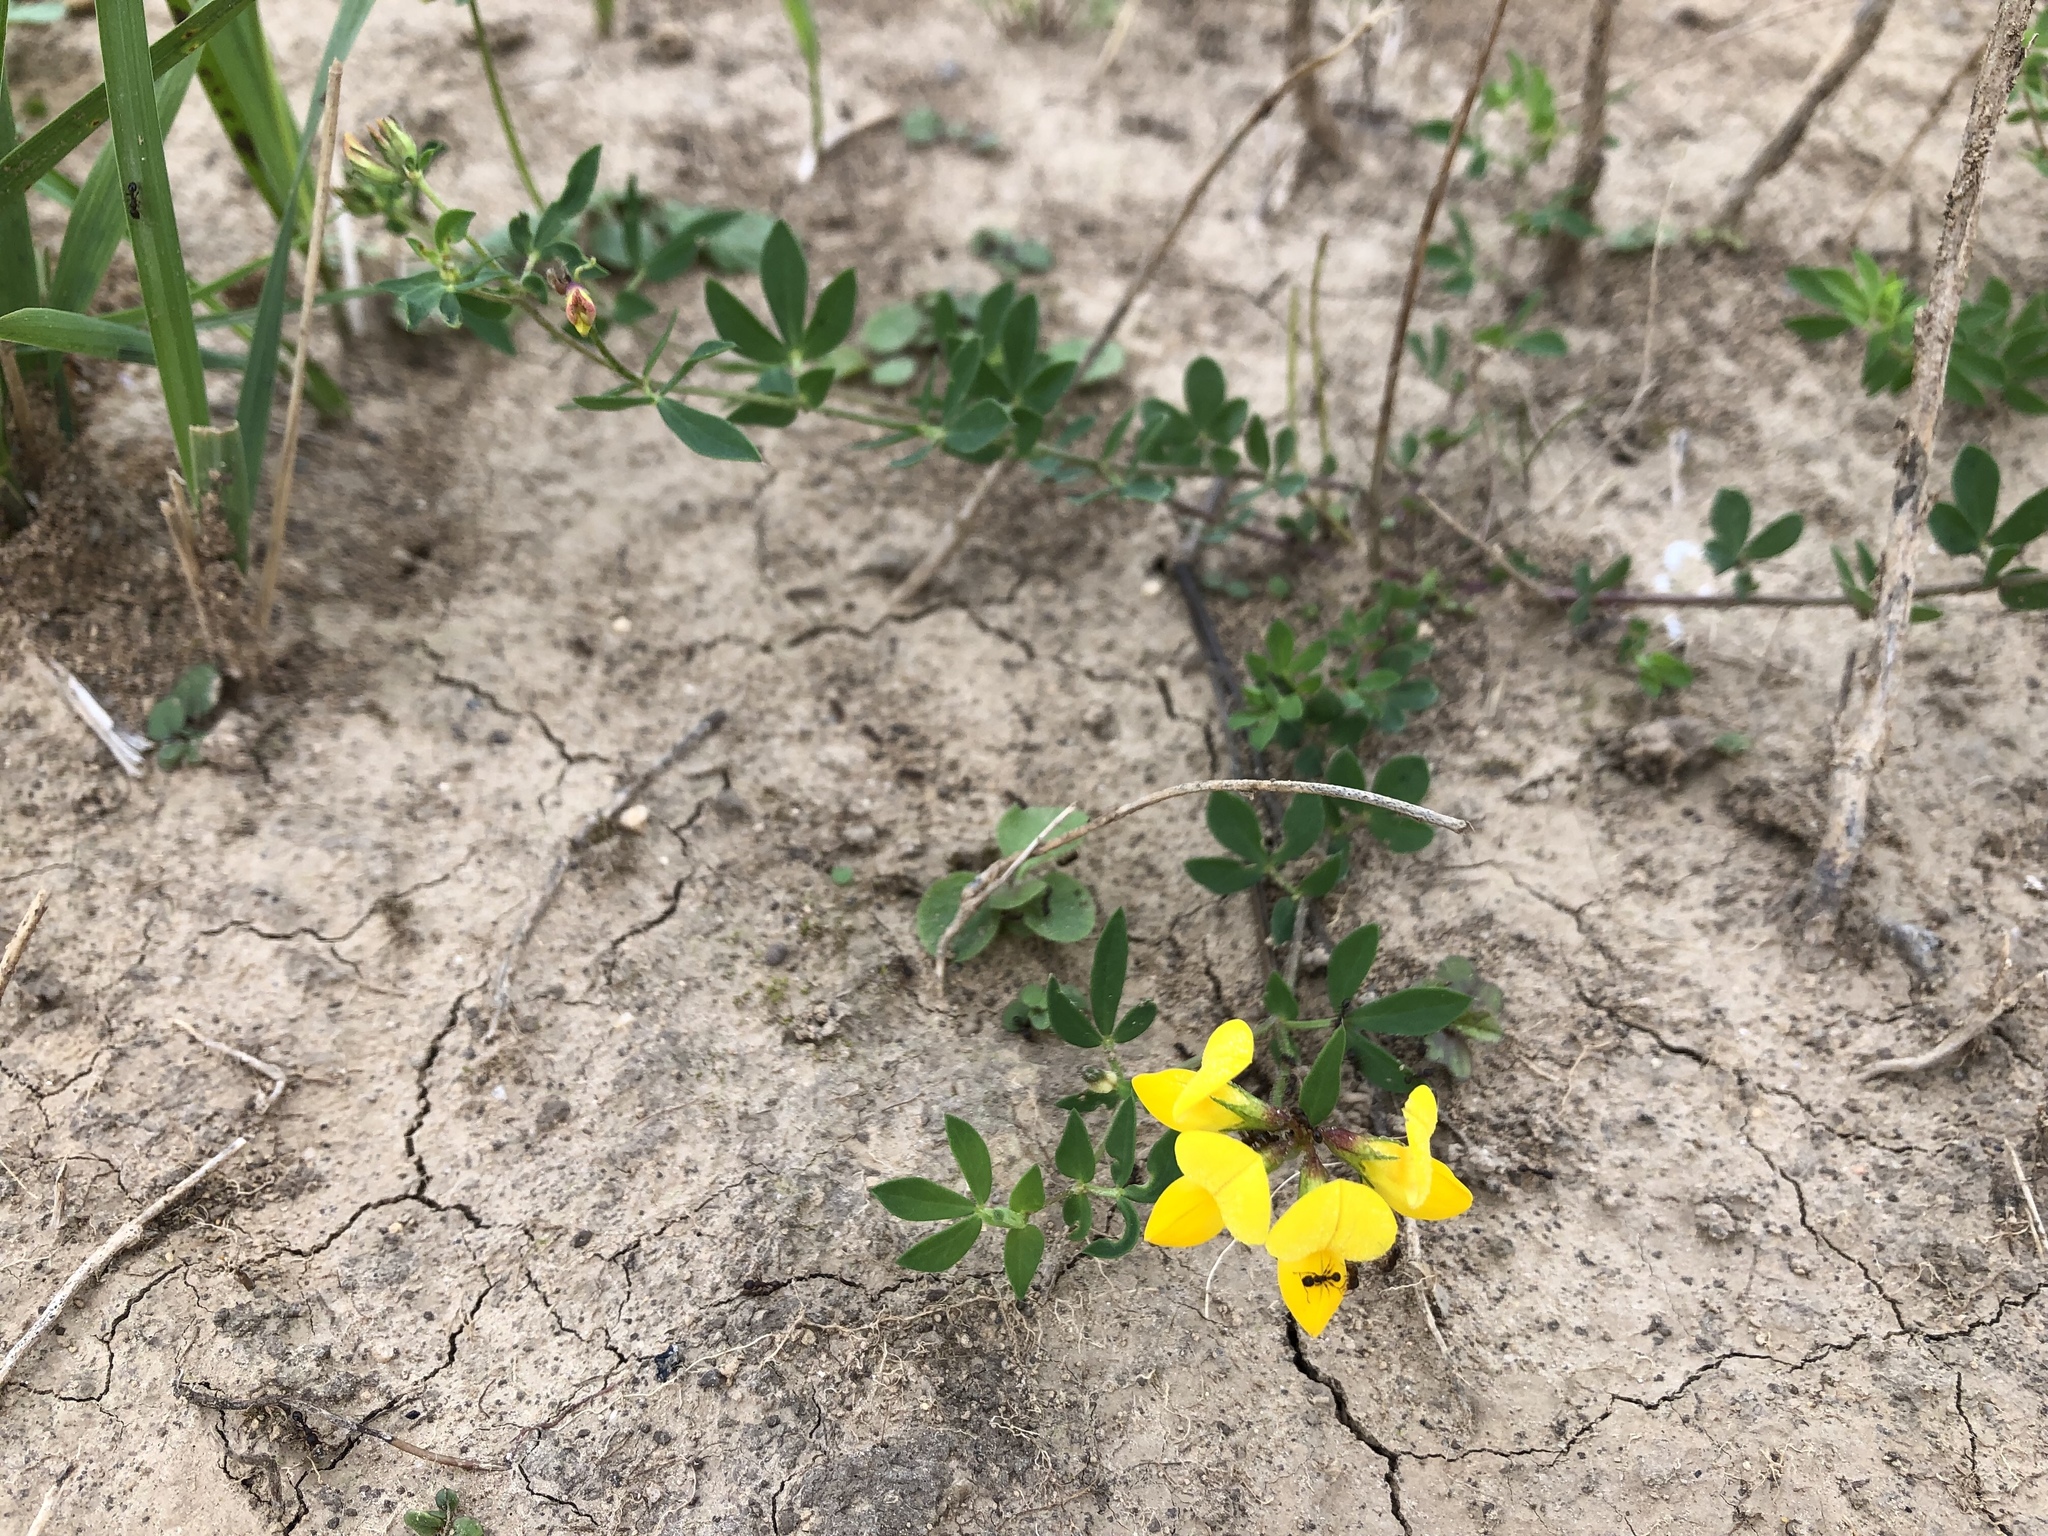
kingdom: Plantae
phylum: Tracheophyta
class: Magnoliopsida
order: Fabales
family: Fabaceae
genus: Lotus
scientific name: Lotus corniculatus
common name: Common bird's-foot-trefoil
